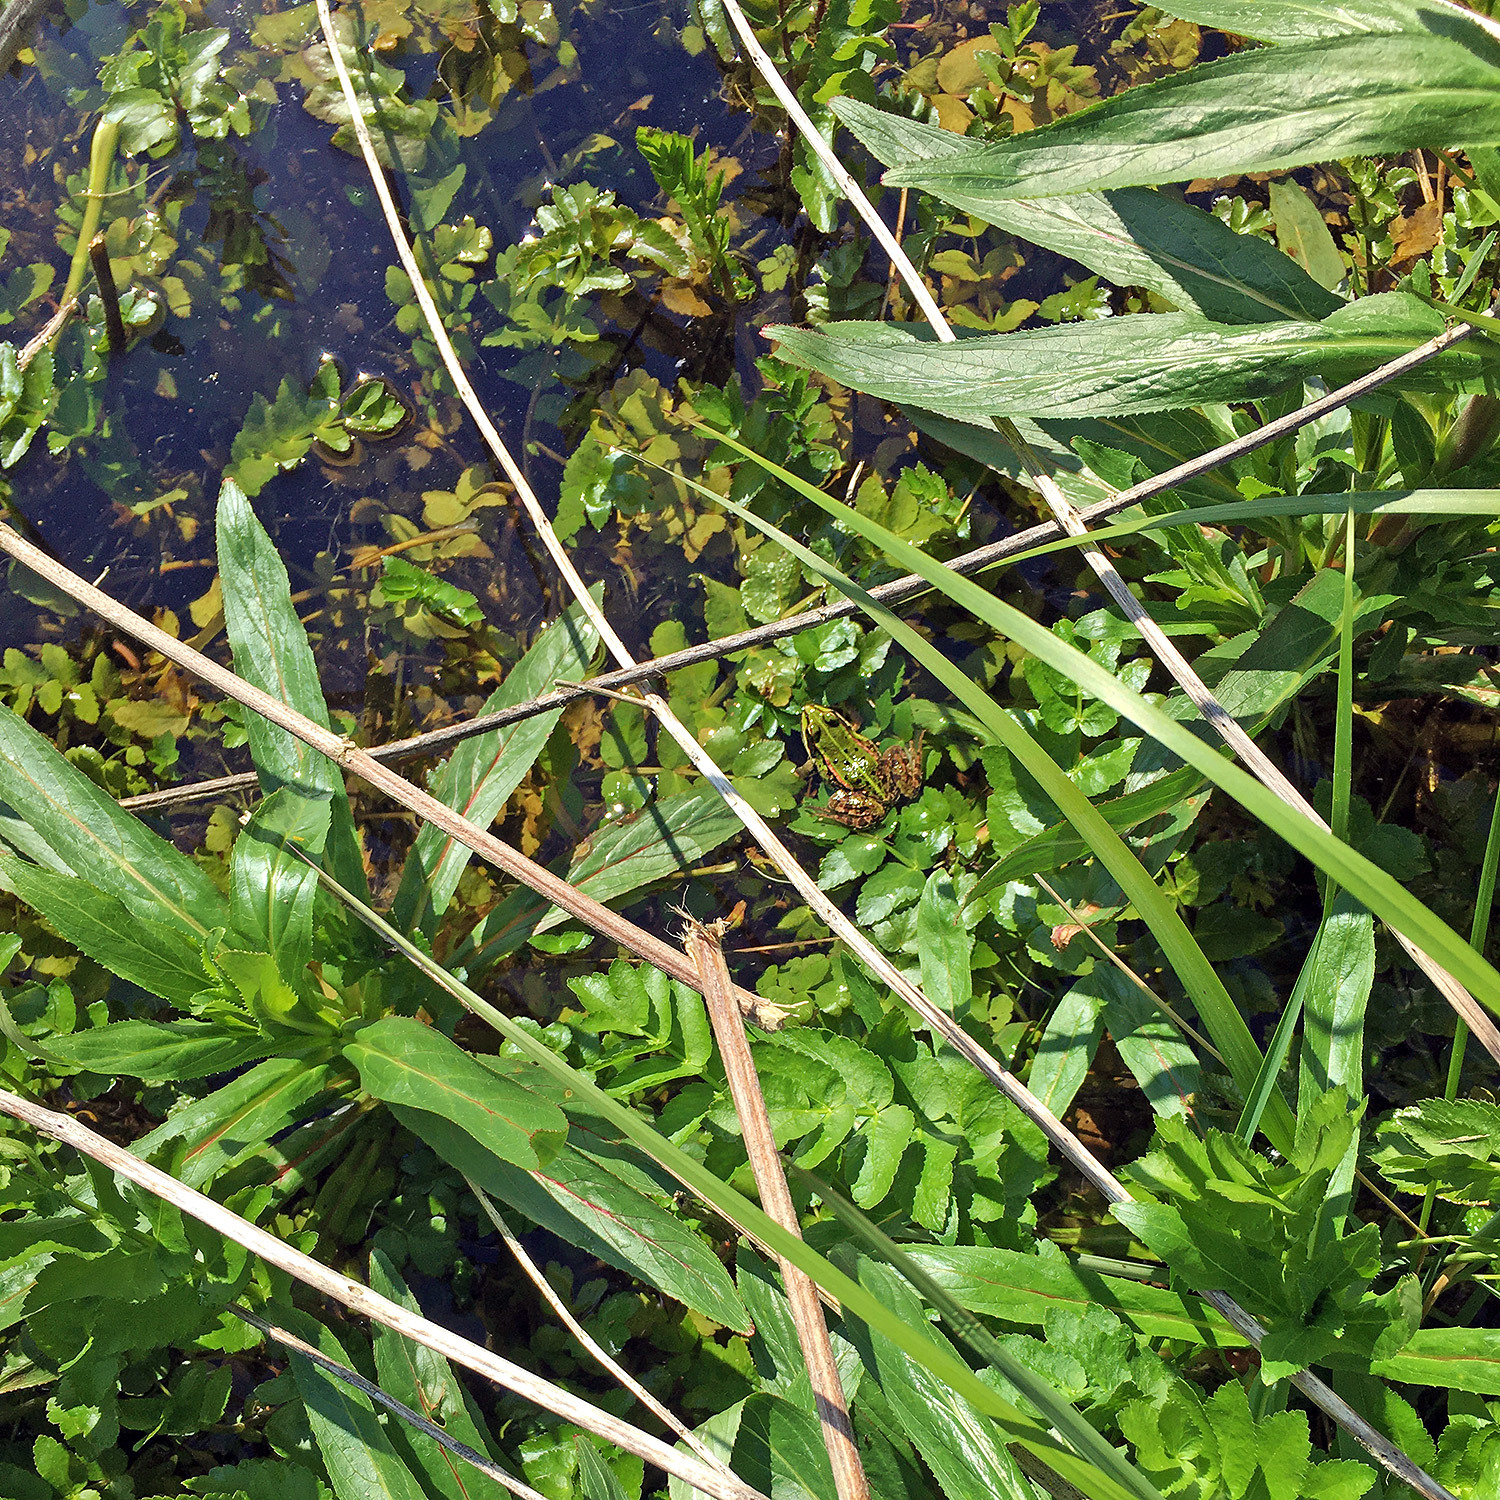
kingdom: Animalia
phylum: Chordata
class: Amphibia
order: Anura
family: Ranidae
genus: Pelophylax
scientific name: Pelophylax
